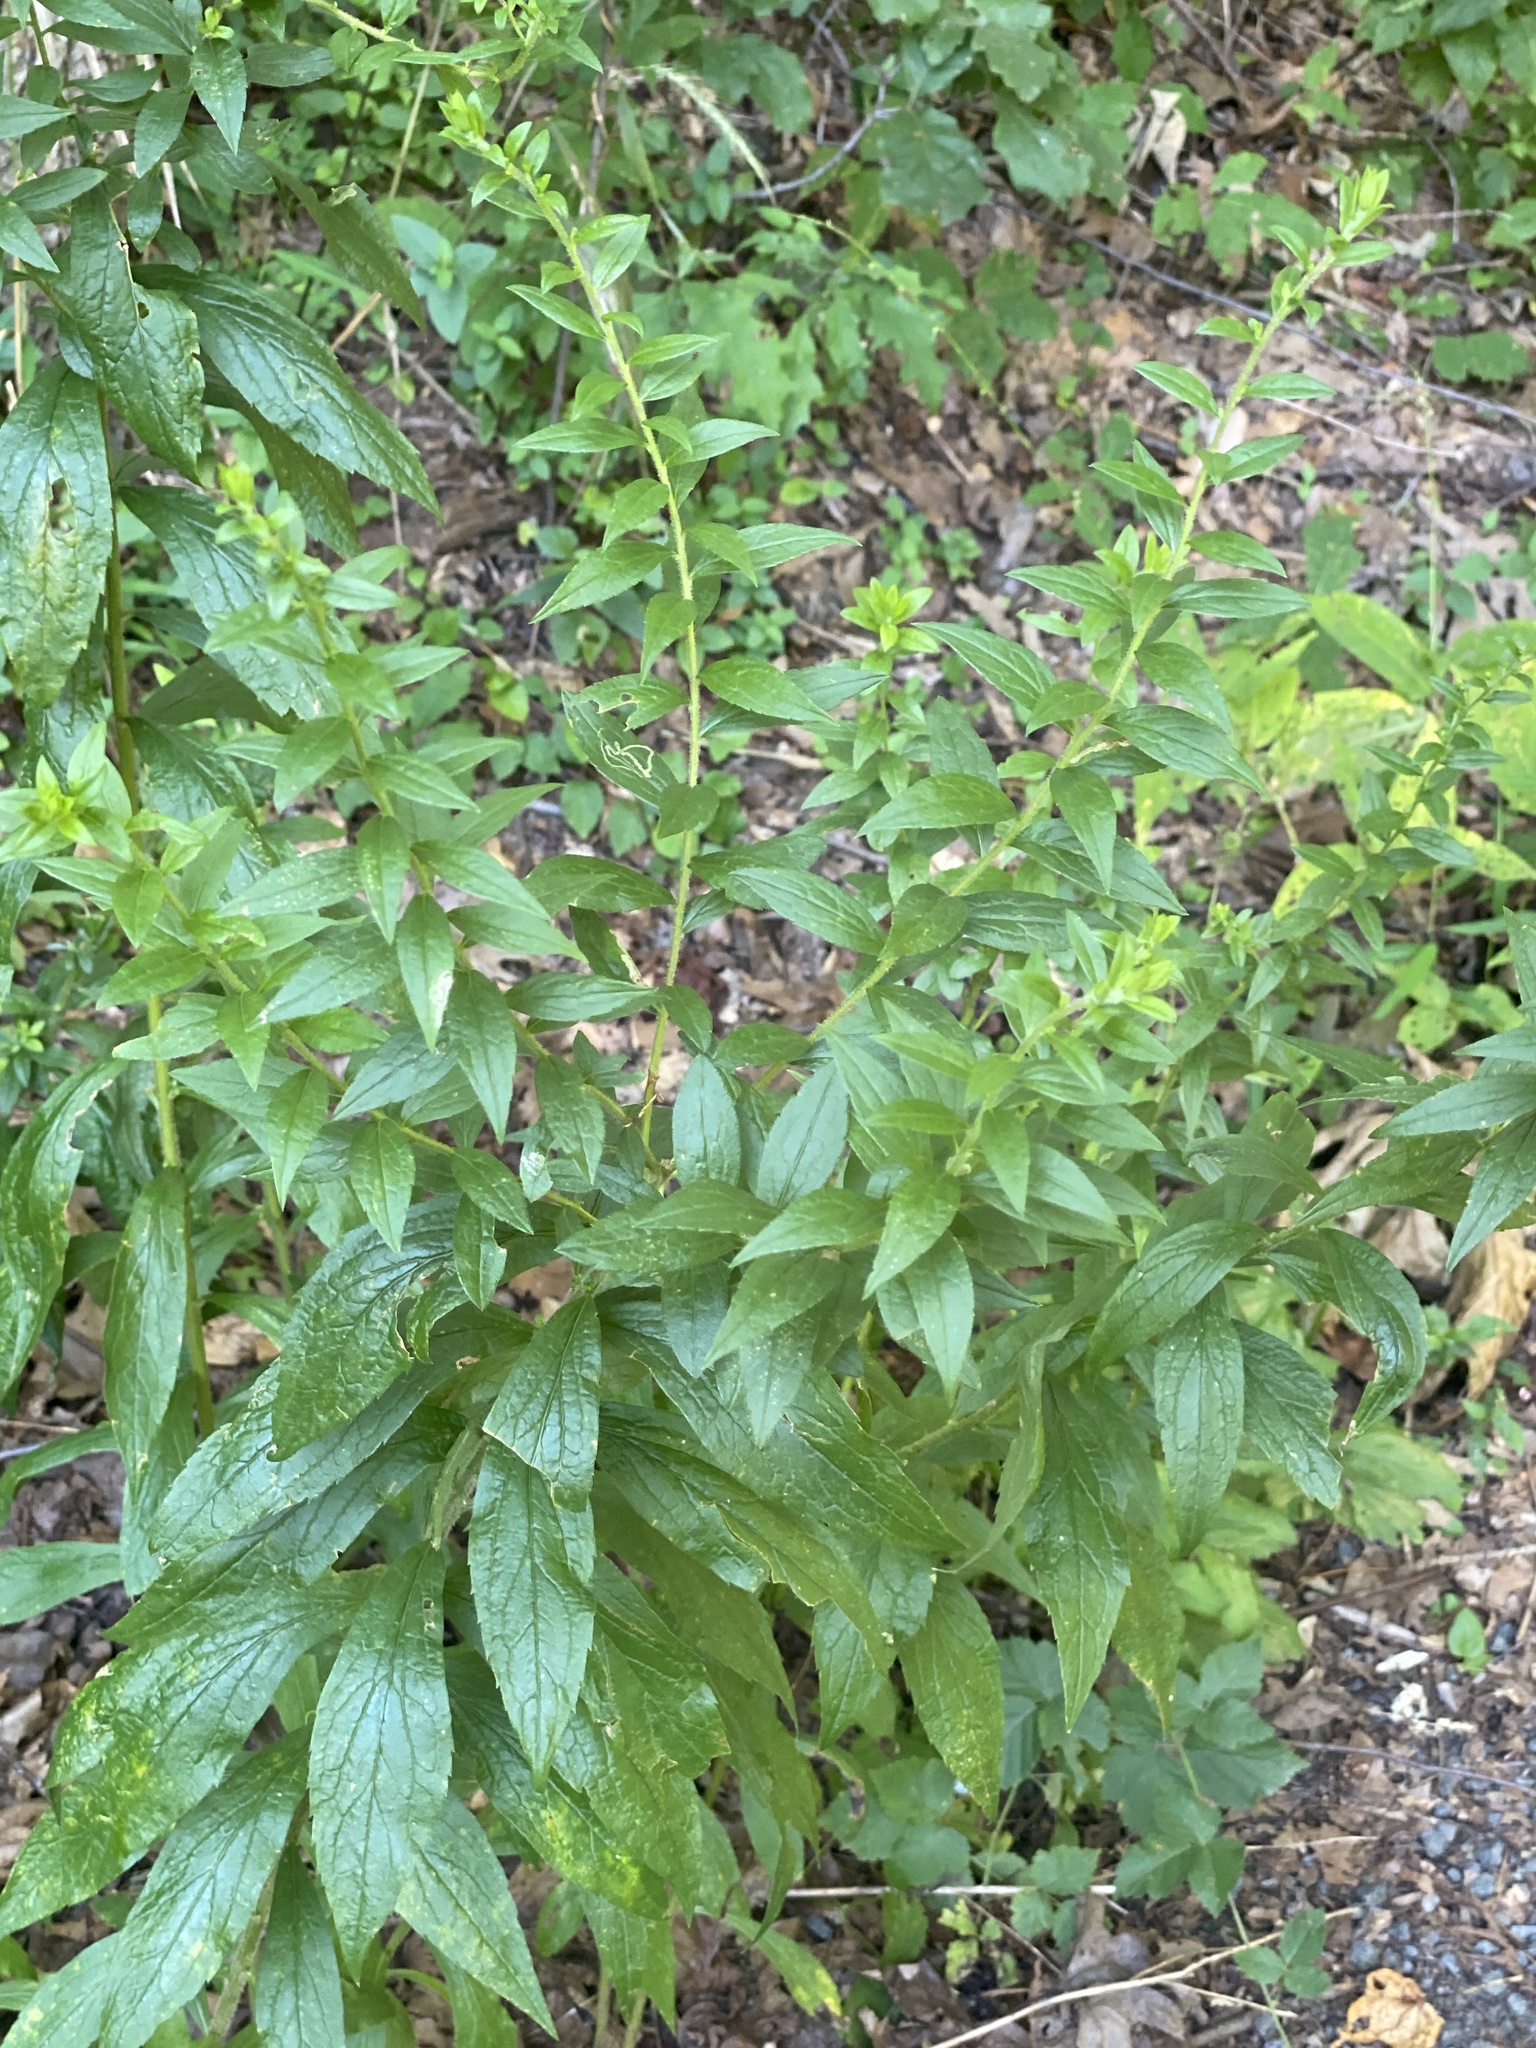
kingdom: Plantae
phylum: Tracheophyta
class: Magnoliopsida
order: Asterales
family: Asteraceae
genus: Solidago
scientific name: Solidago rugosa
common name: Rough-stemmed goldenrod
